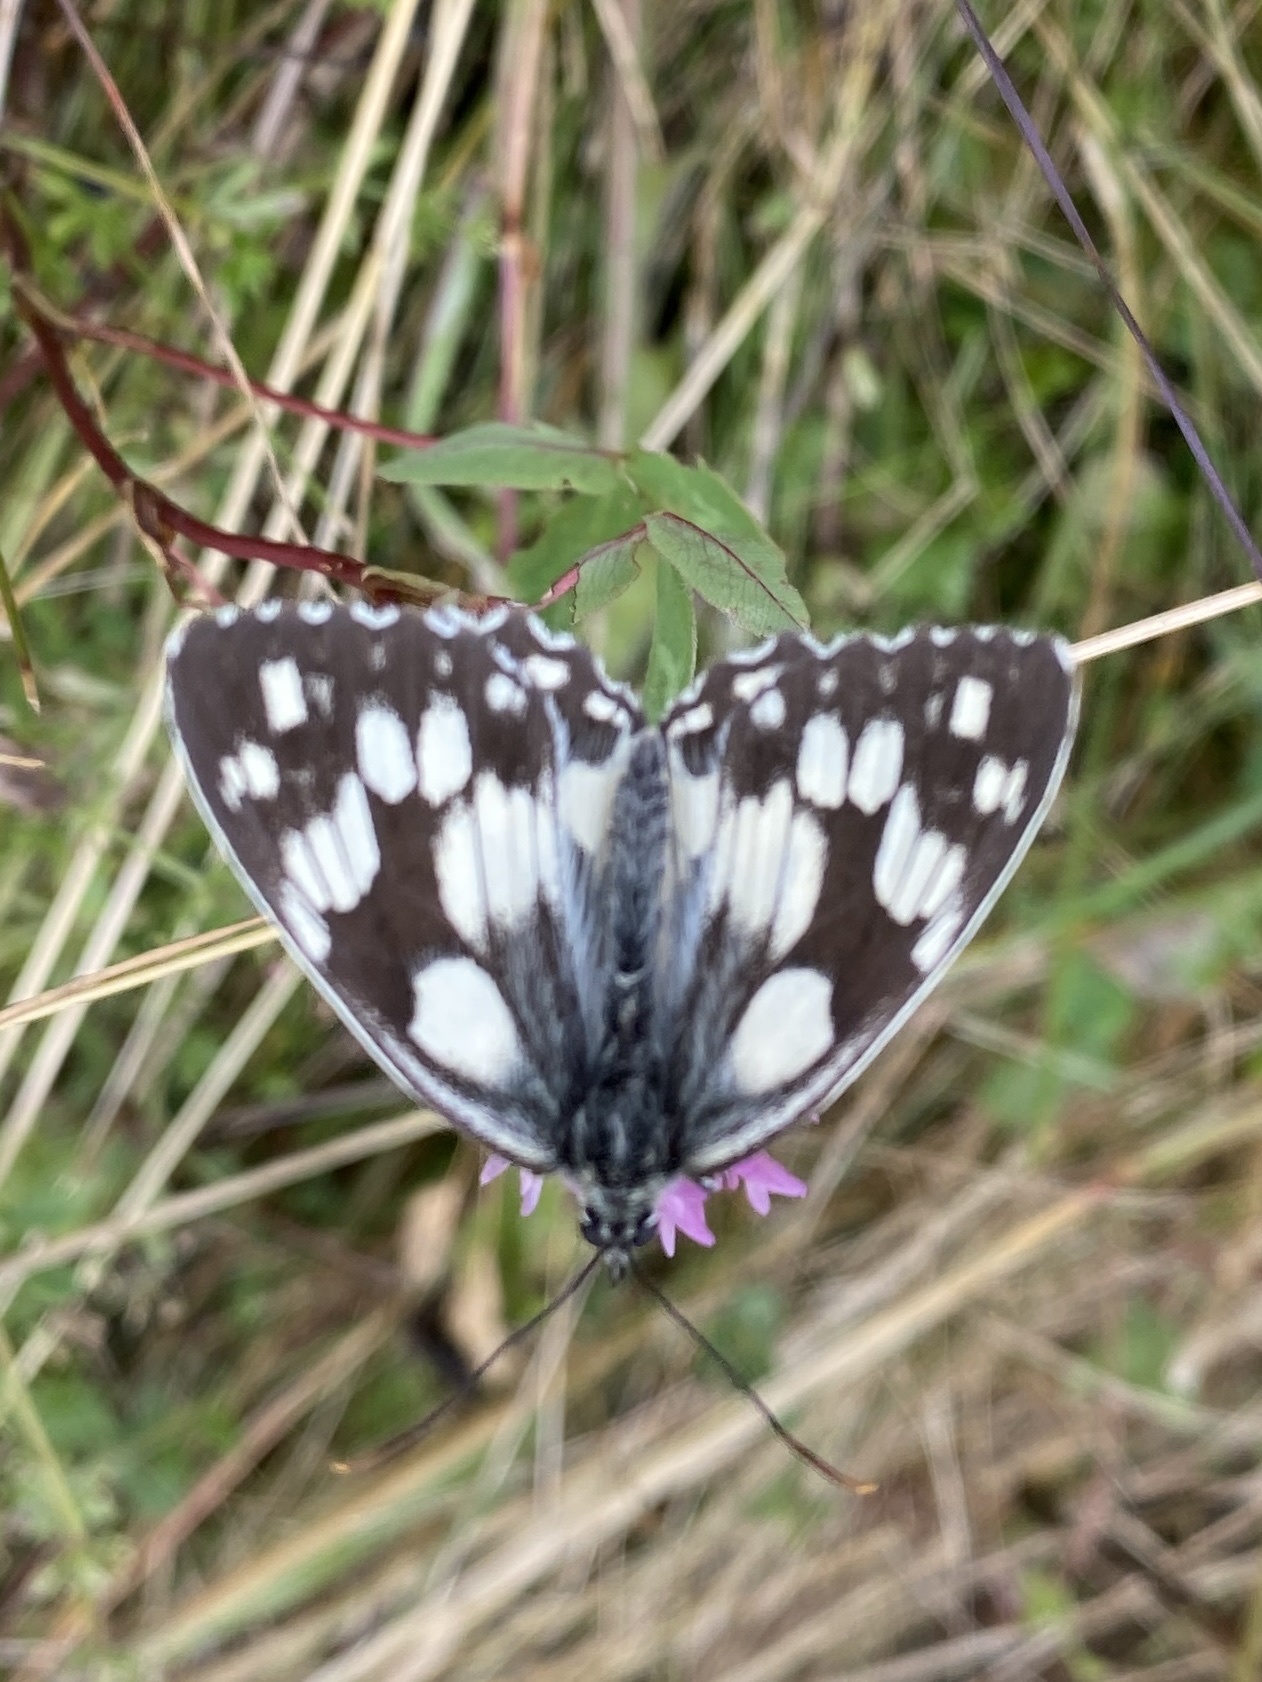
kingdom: Animalia
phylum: Arthropoda
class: Insecta
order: Lepidoptera
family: Nymphalidae
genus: Melanargia
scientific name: Melanargia galathea
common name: Marbled white
